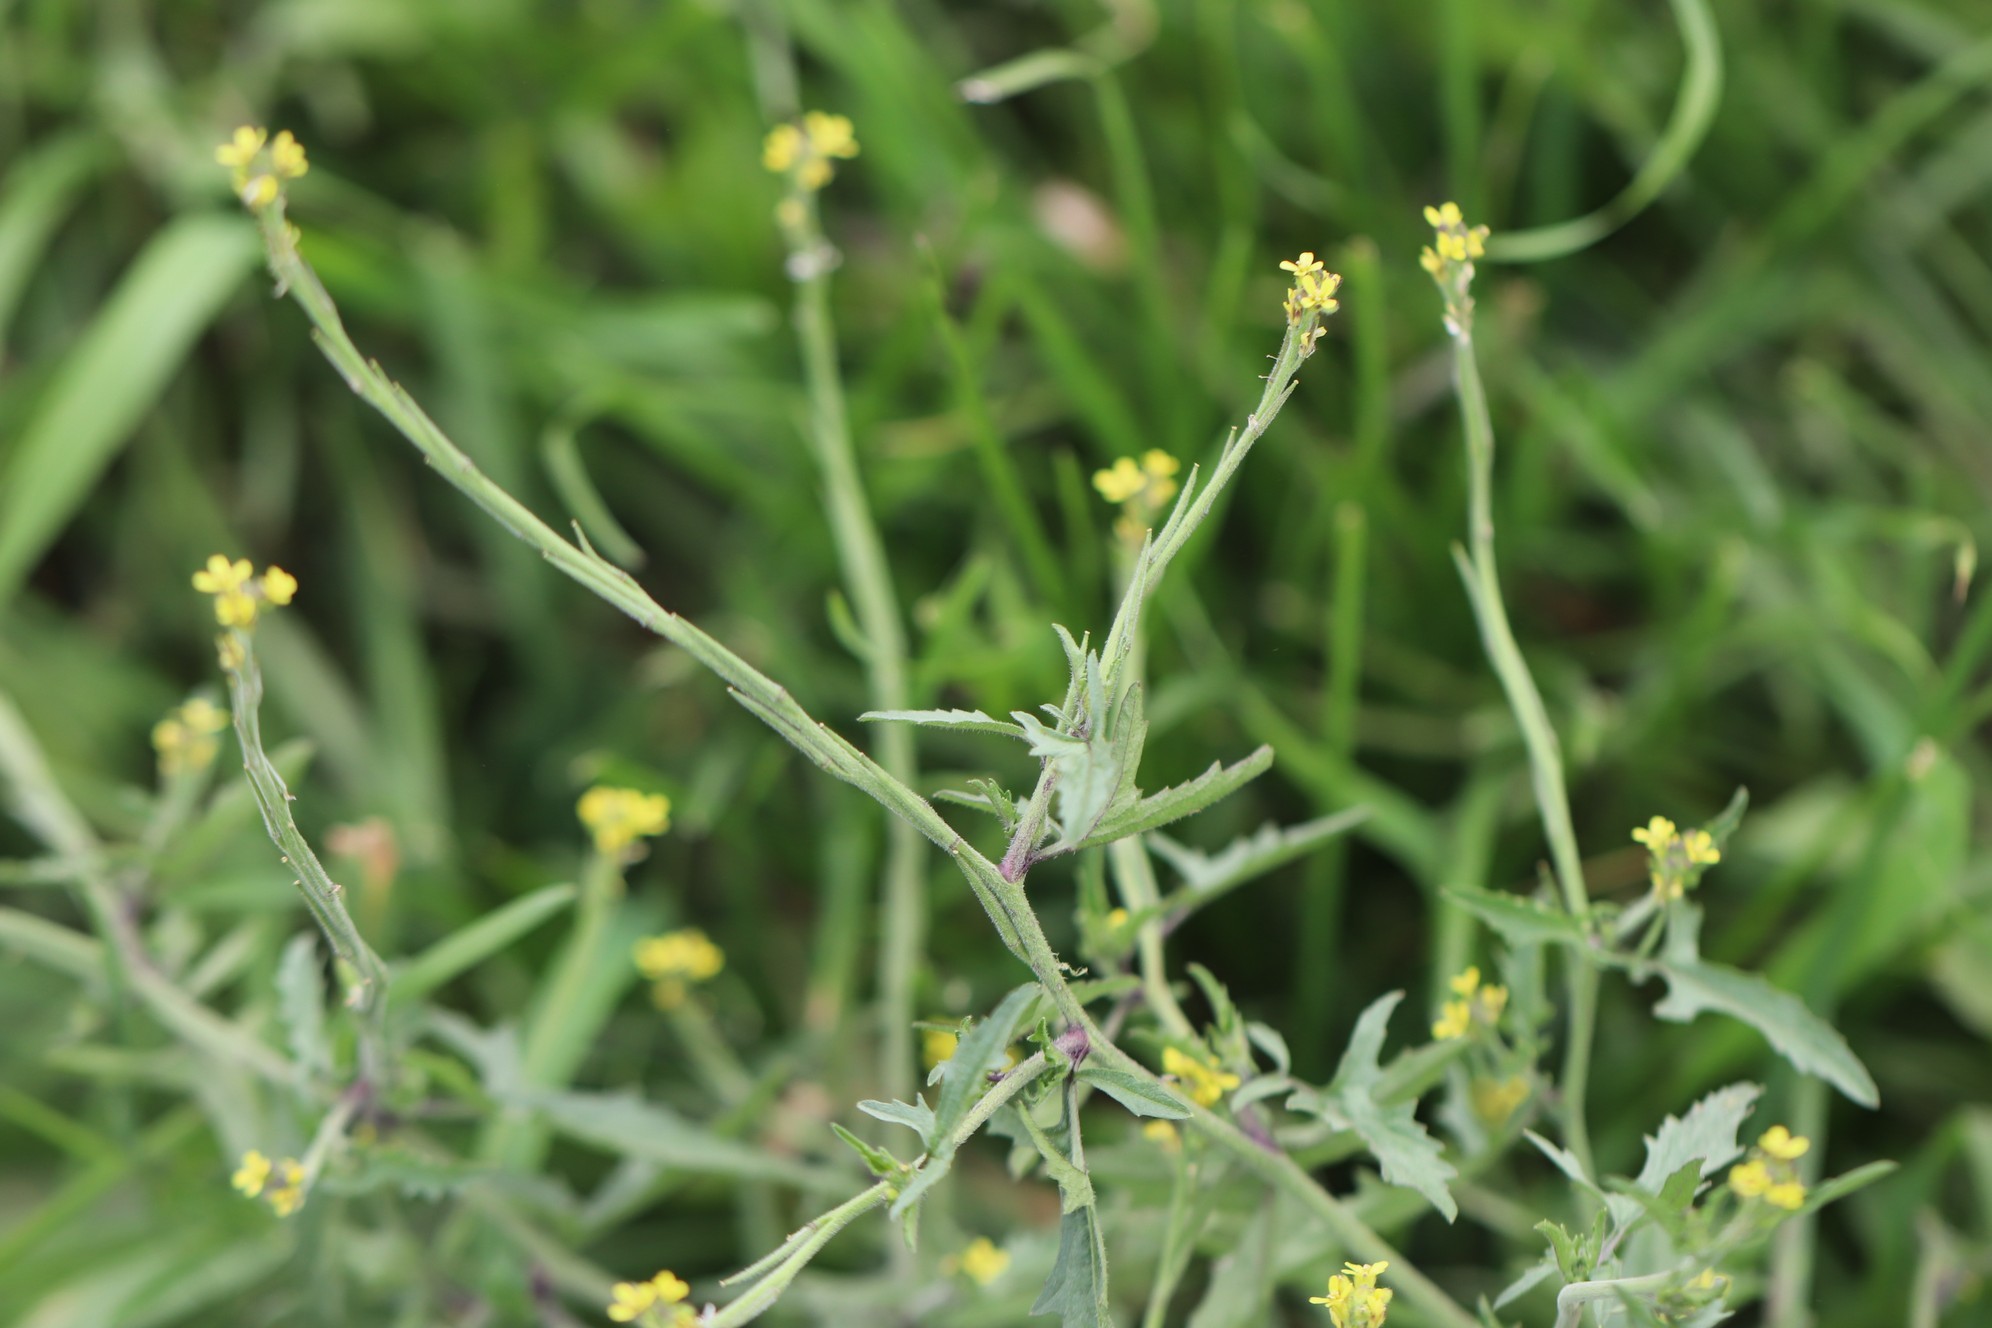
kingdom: Plantae
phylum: Tracheophyta
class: Magnoliopsida
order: Brassicales
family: Brassicaceae
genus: Sisymbrium
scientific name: Sisymbrium officinale
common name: Hedge mustard
